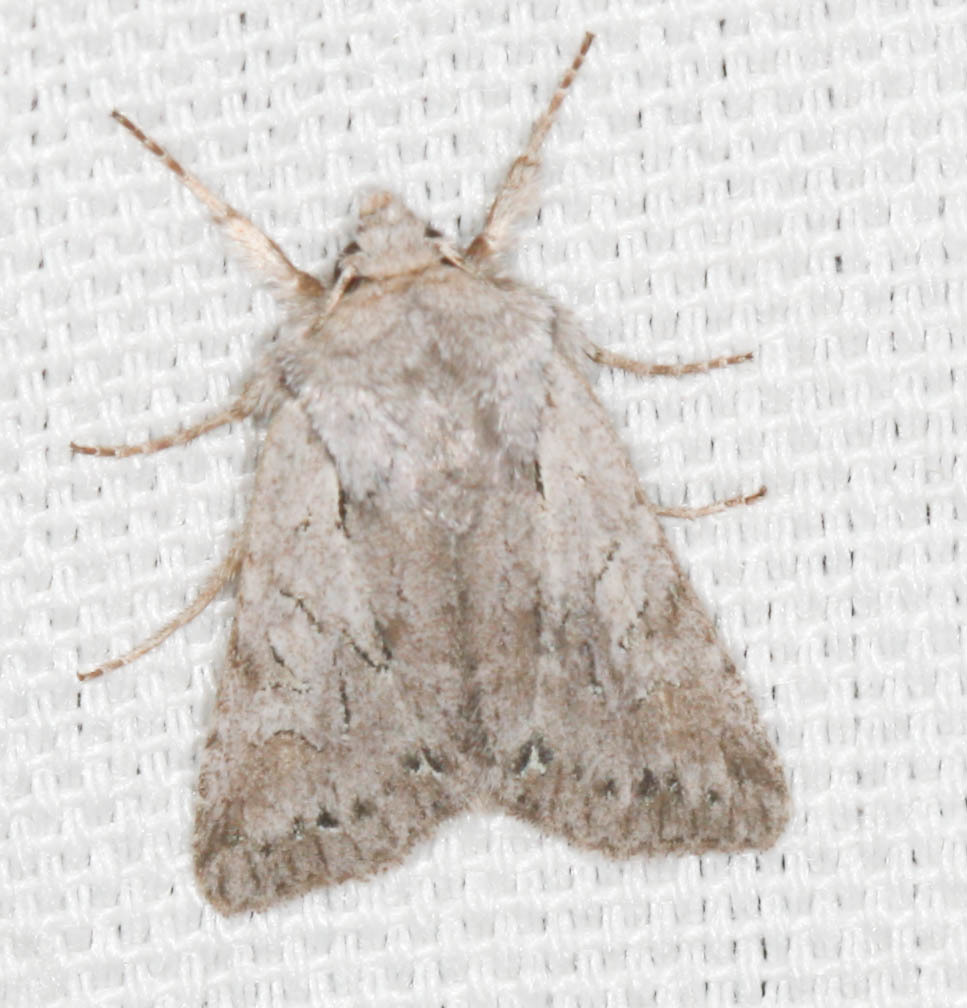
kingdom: Animalia
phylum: Arthropoda
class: Insecta
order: Lepidoptera
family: Noctuidae
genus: Lacinipolia
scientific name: Lacinipolia patalis
